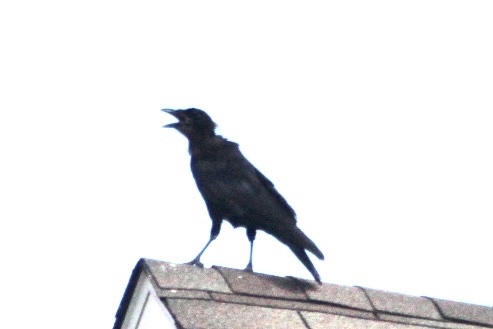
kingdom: Animalia
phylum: Chordata
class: Aves
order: Passeriformes
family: Corvidae
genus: Corvus
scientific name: Corvus brachyrhynchos
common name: American crow
